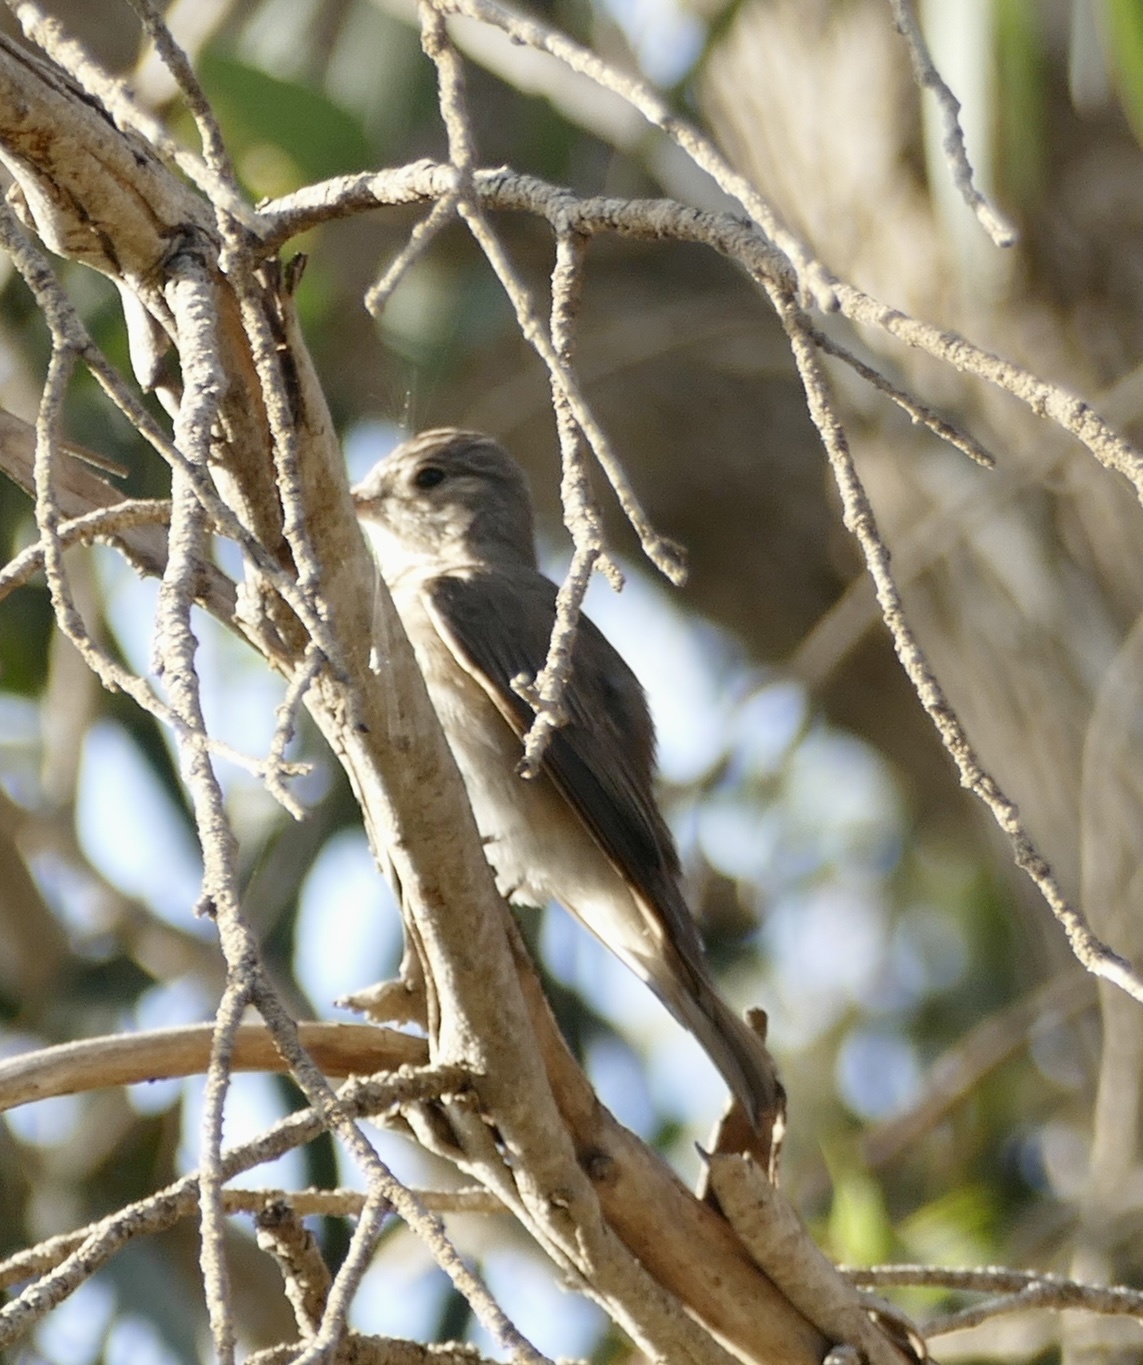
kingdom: Animalia
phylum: Chordata
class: Aves
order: Passeriformes
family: Muscicapidae
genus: Muscicapa
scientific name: Muscicapa striata
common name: Spotted flycatcher
